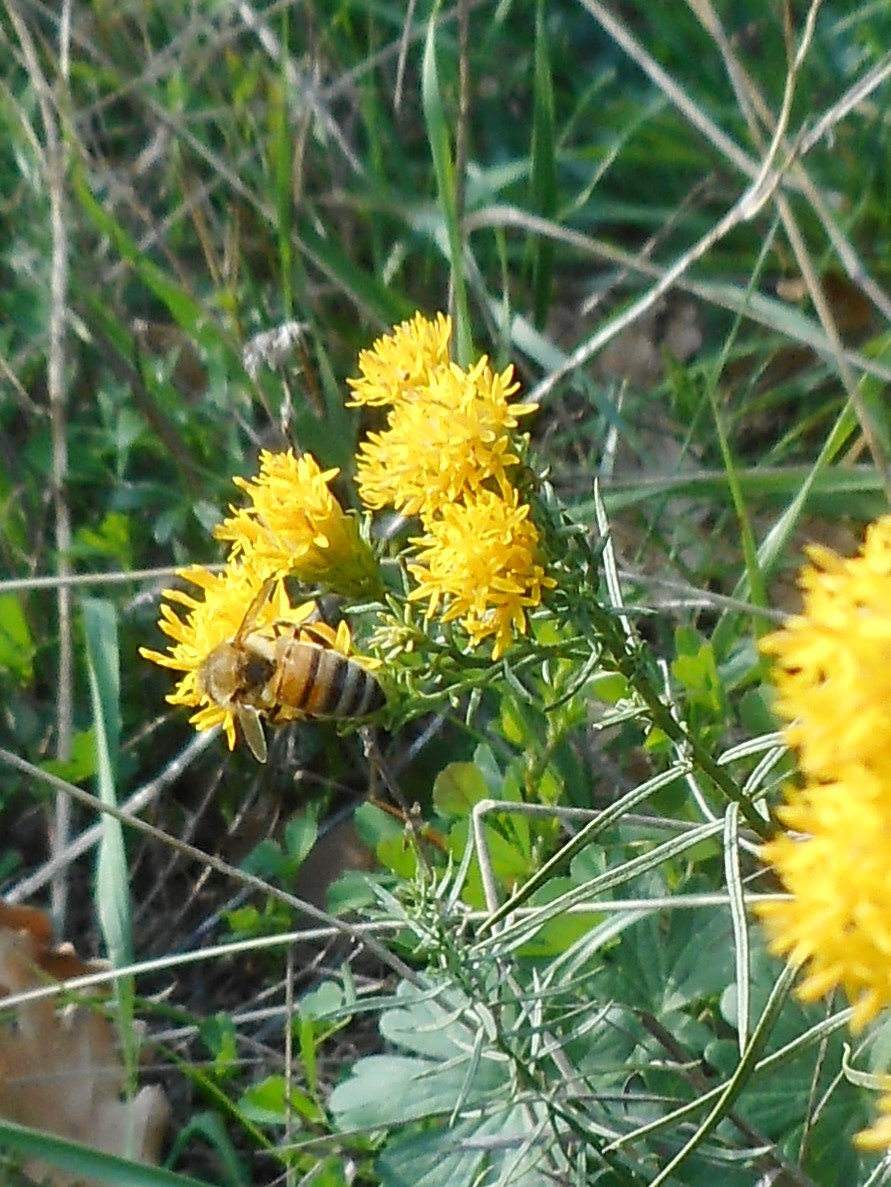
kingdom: Animalia
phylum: Arthropoda
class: Insecta
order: Hymenoptera
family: Apidae
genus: Apis
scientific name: Apis mellifera
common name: Honey bee
